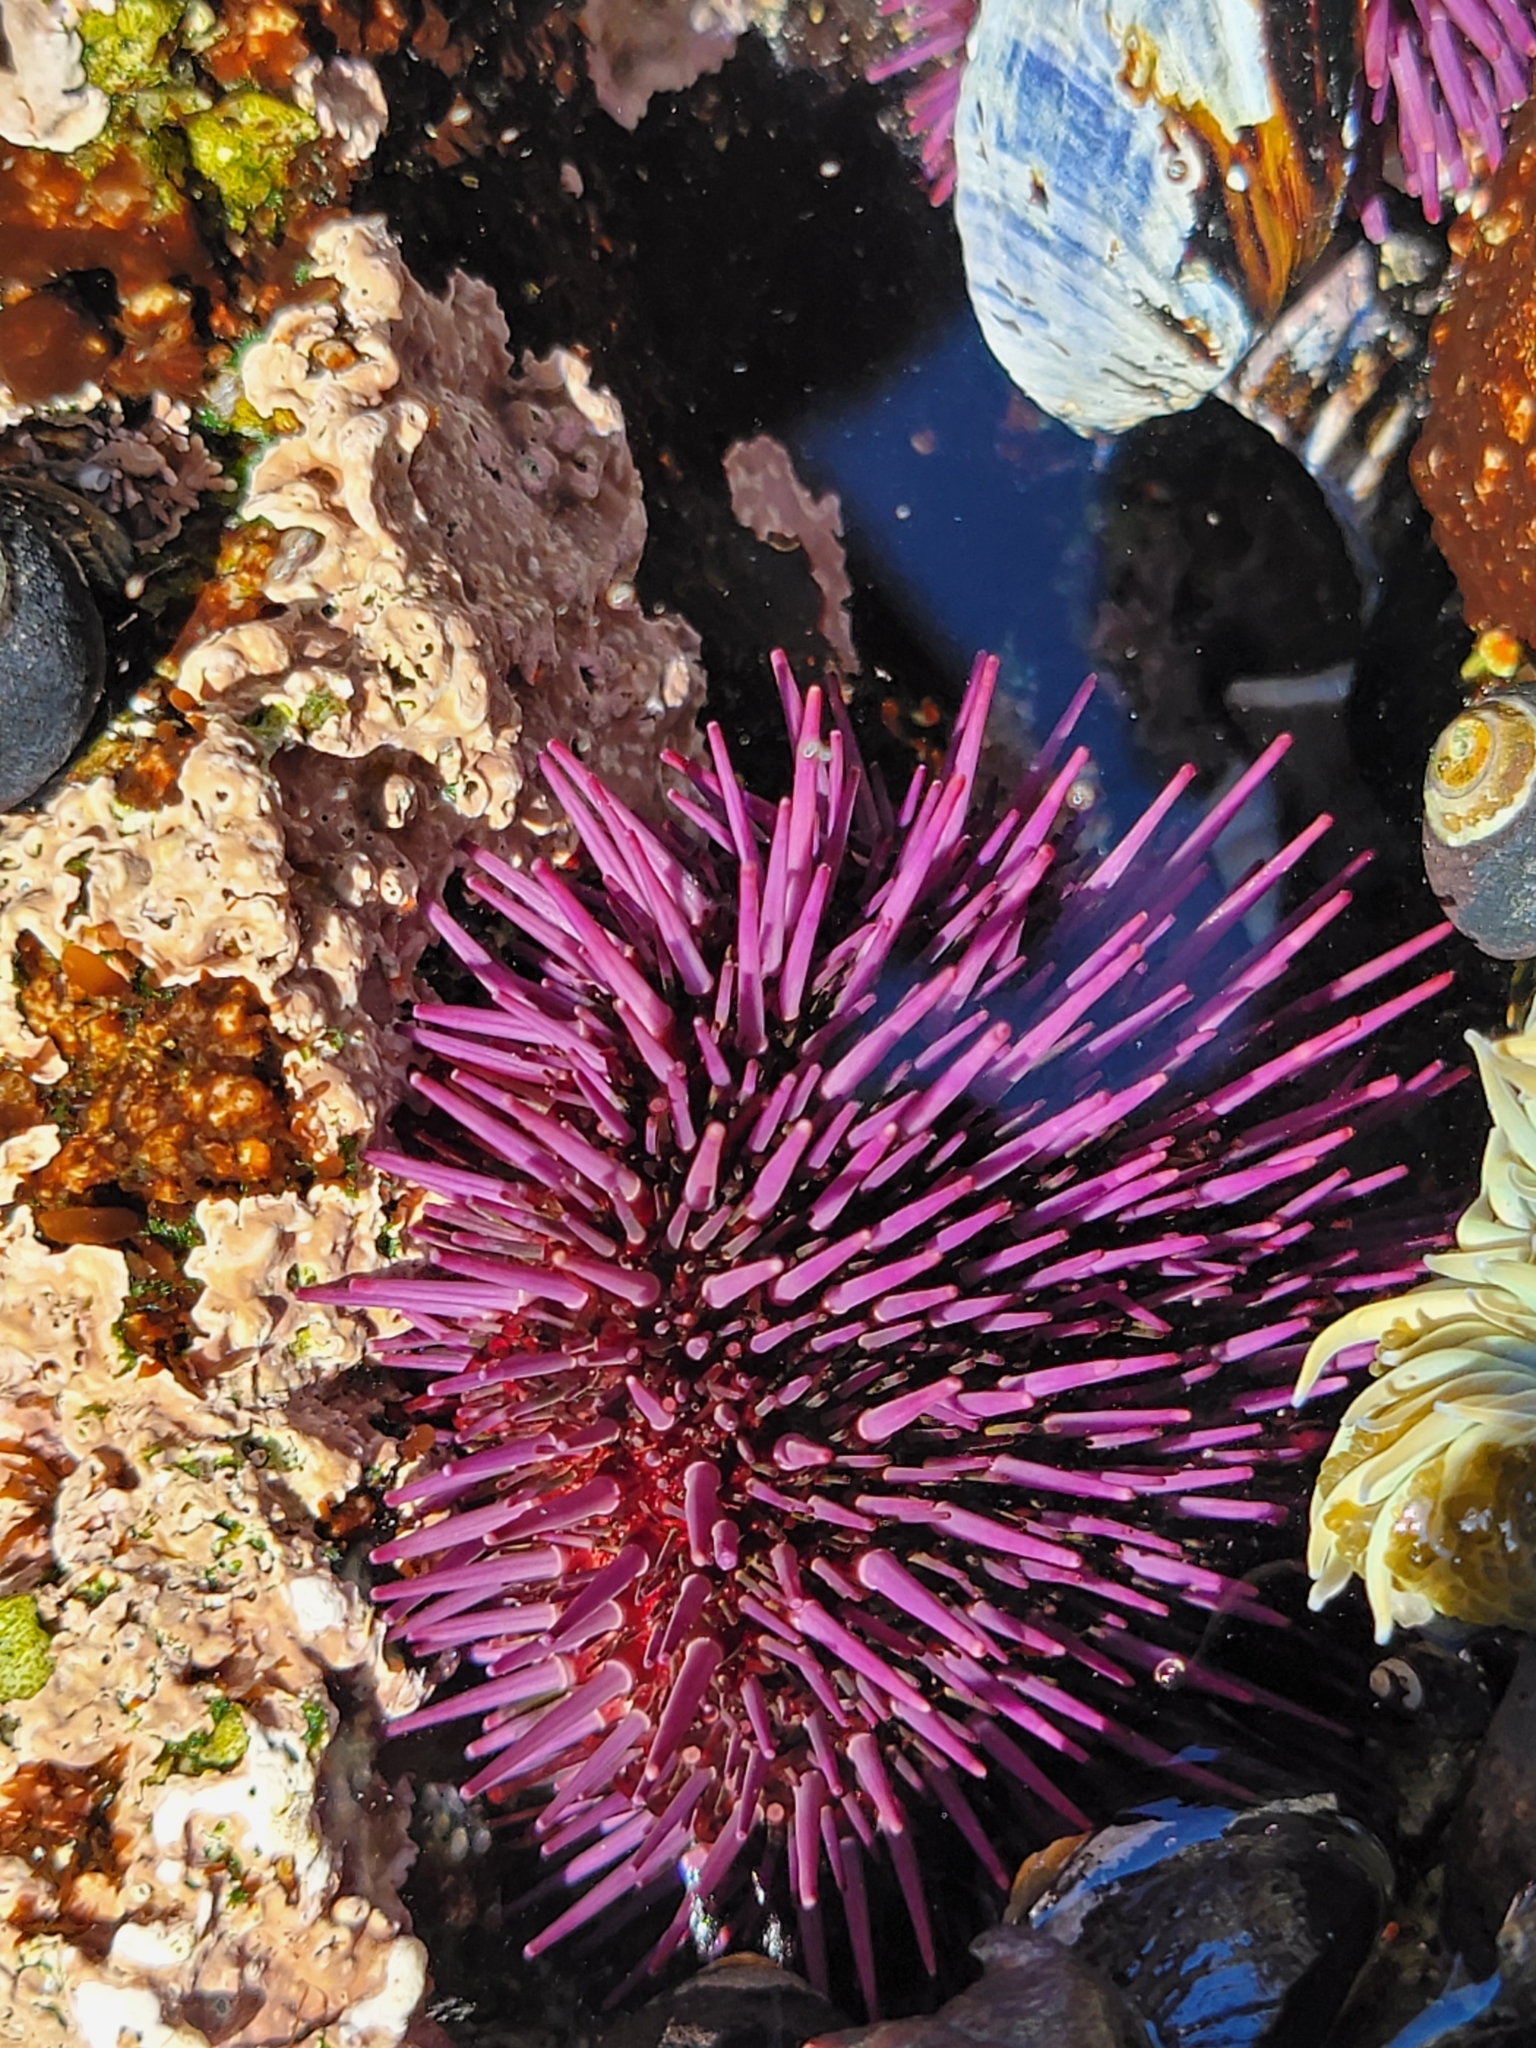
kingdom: Animalia
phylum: Echinodermata
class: Echinoidea
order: Camarodonta
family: Strongylocentrotidae
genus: Strongylocentrotus
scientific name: Strongylocentrotus purpuratus
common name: Purple sea urchin
